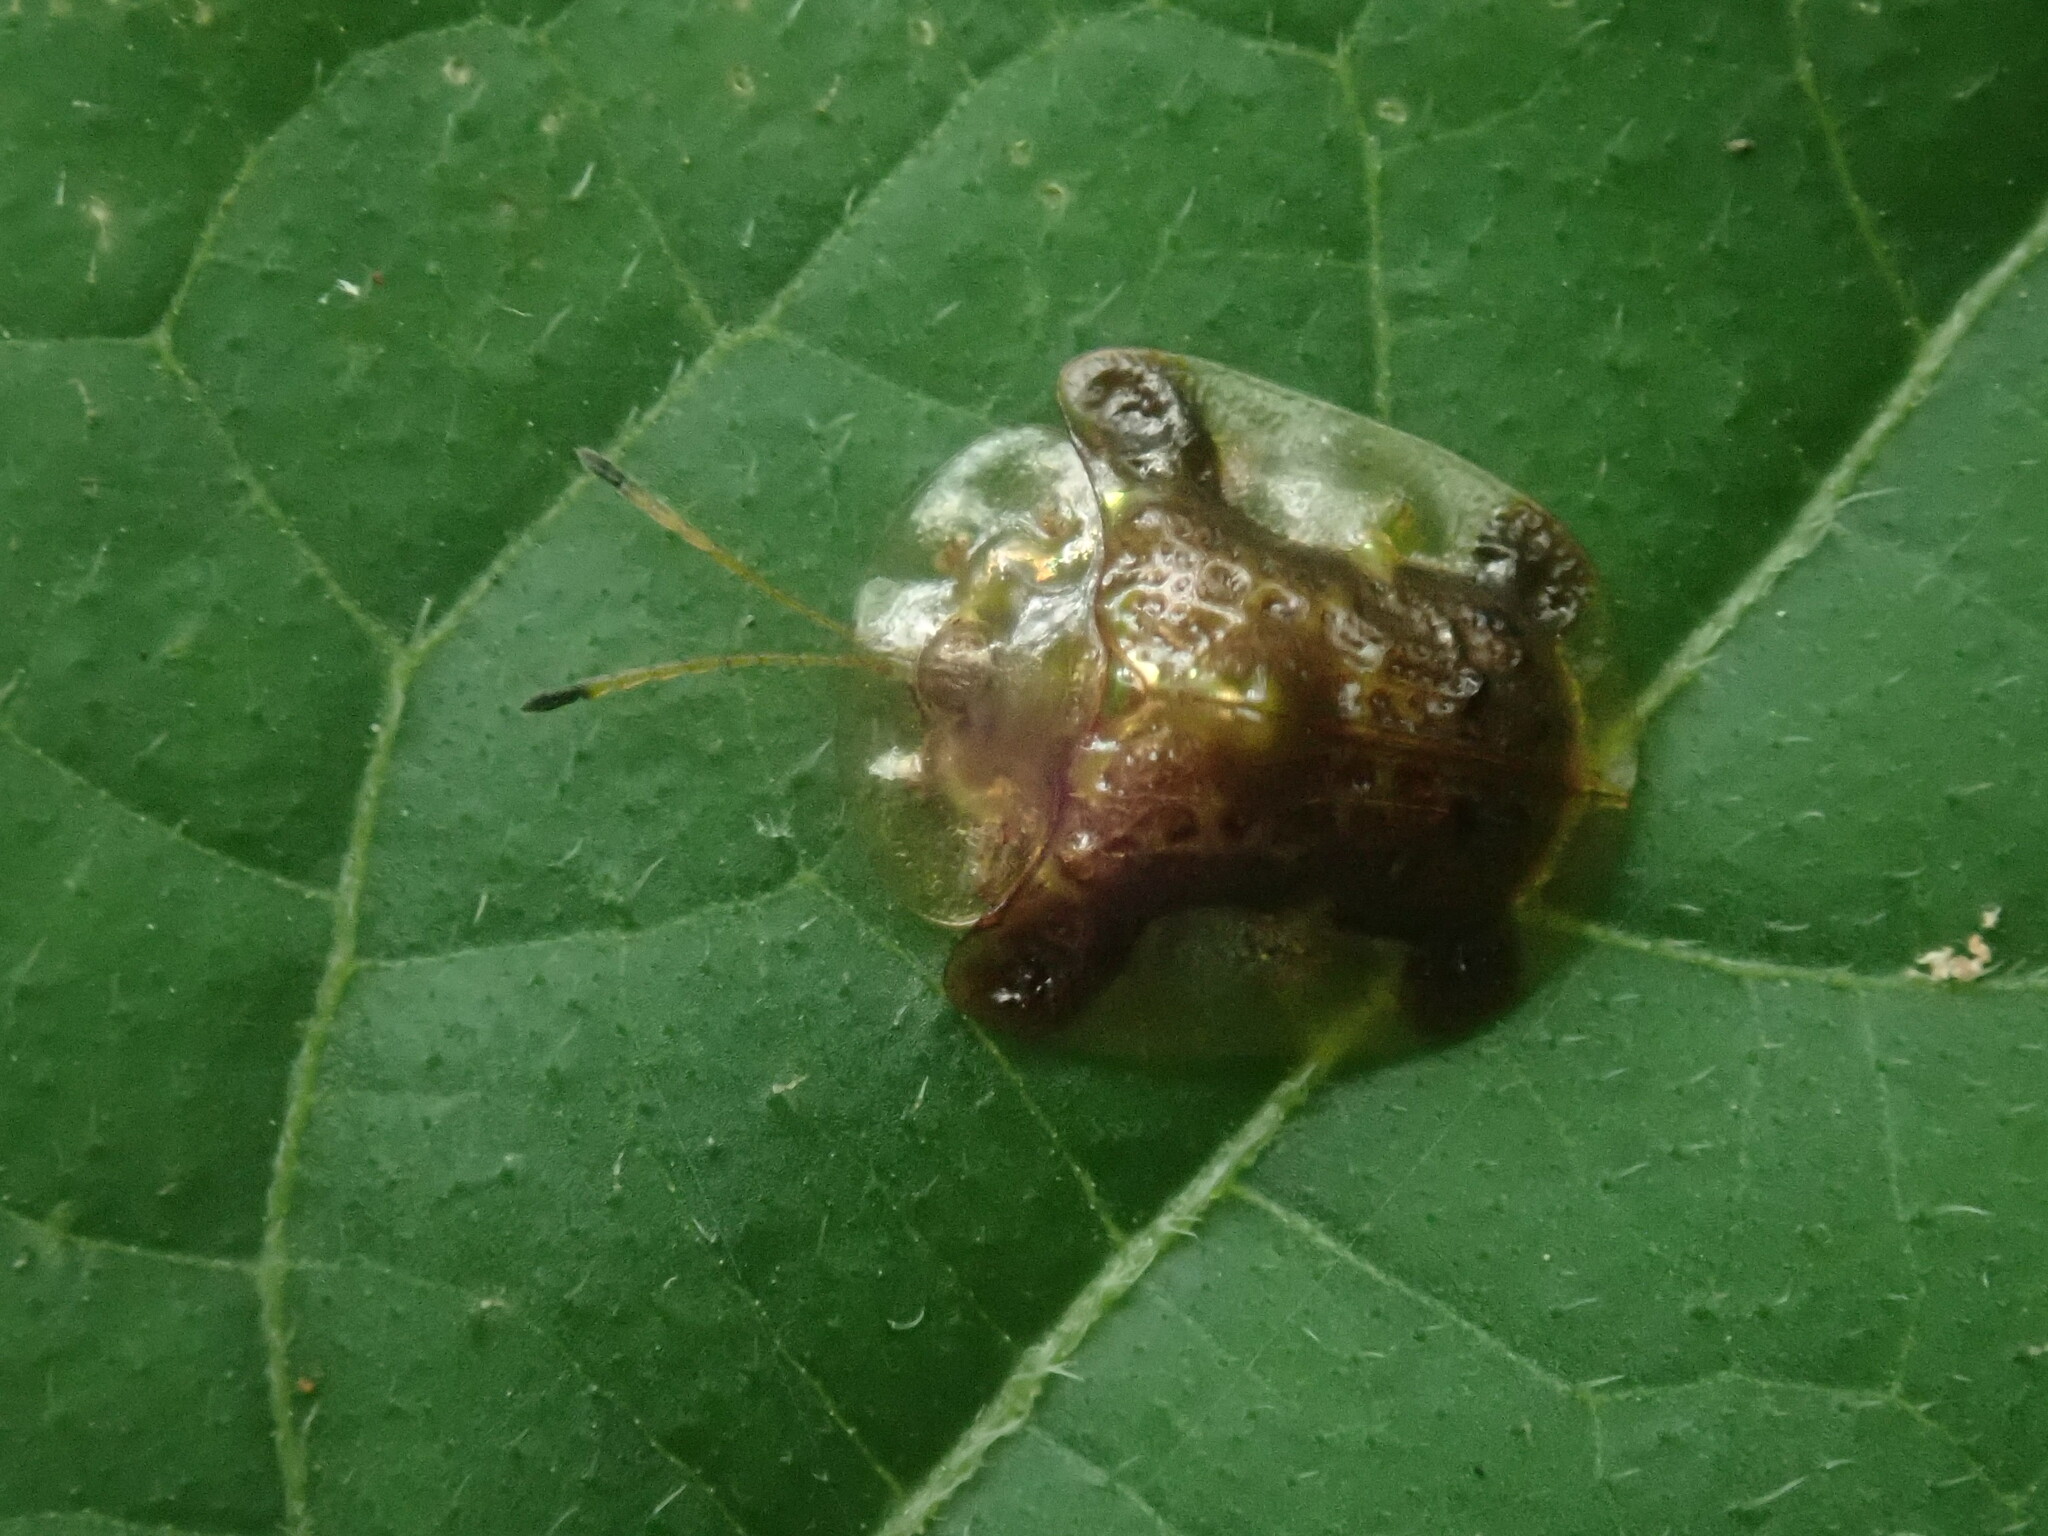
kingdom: Animalia
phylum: Arthropoda
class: Insecta
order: Coleoptera
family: Chrysomelidae
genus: Helocassis
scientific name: Helocassis testudinaria
